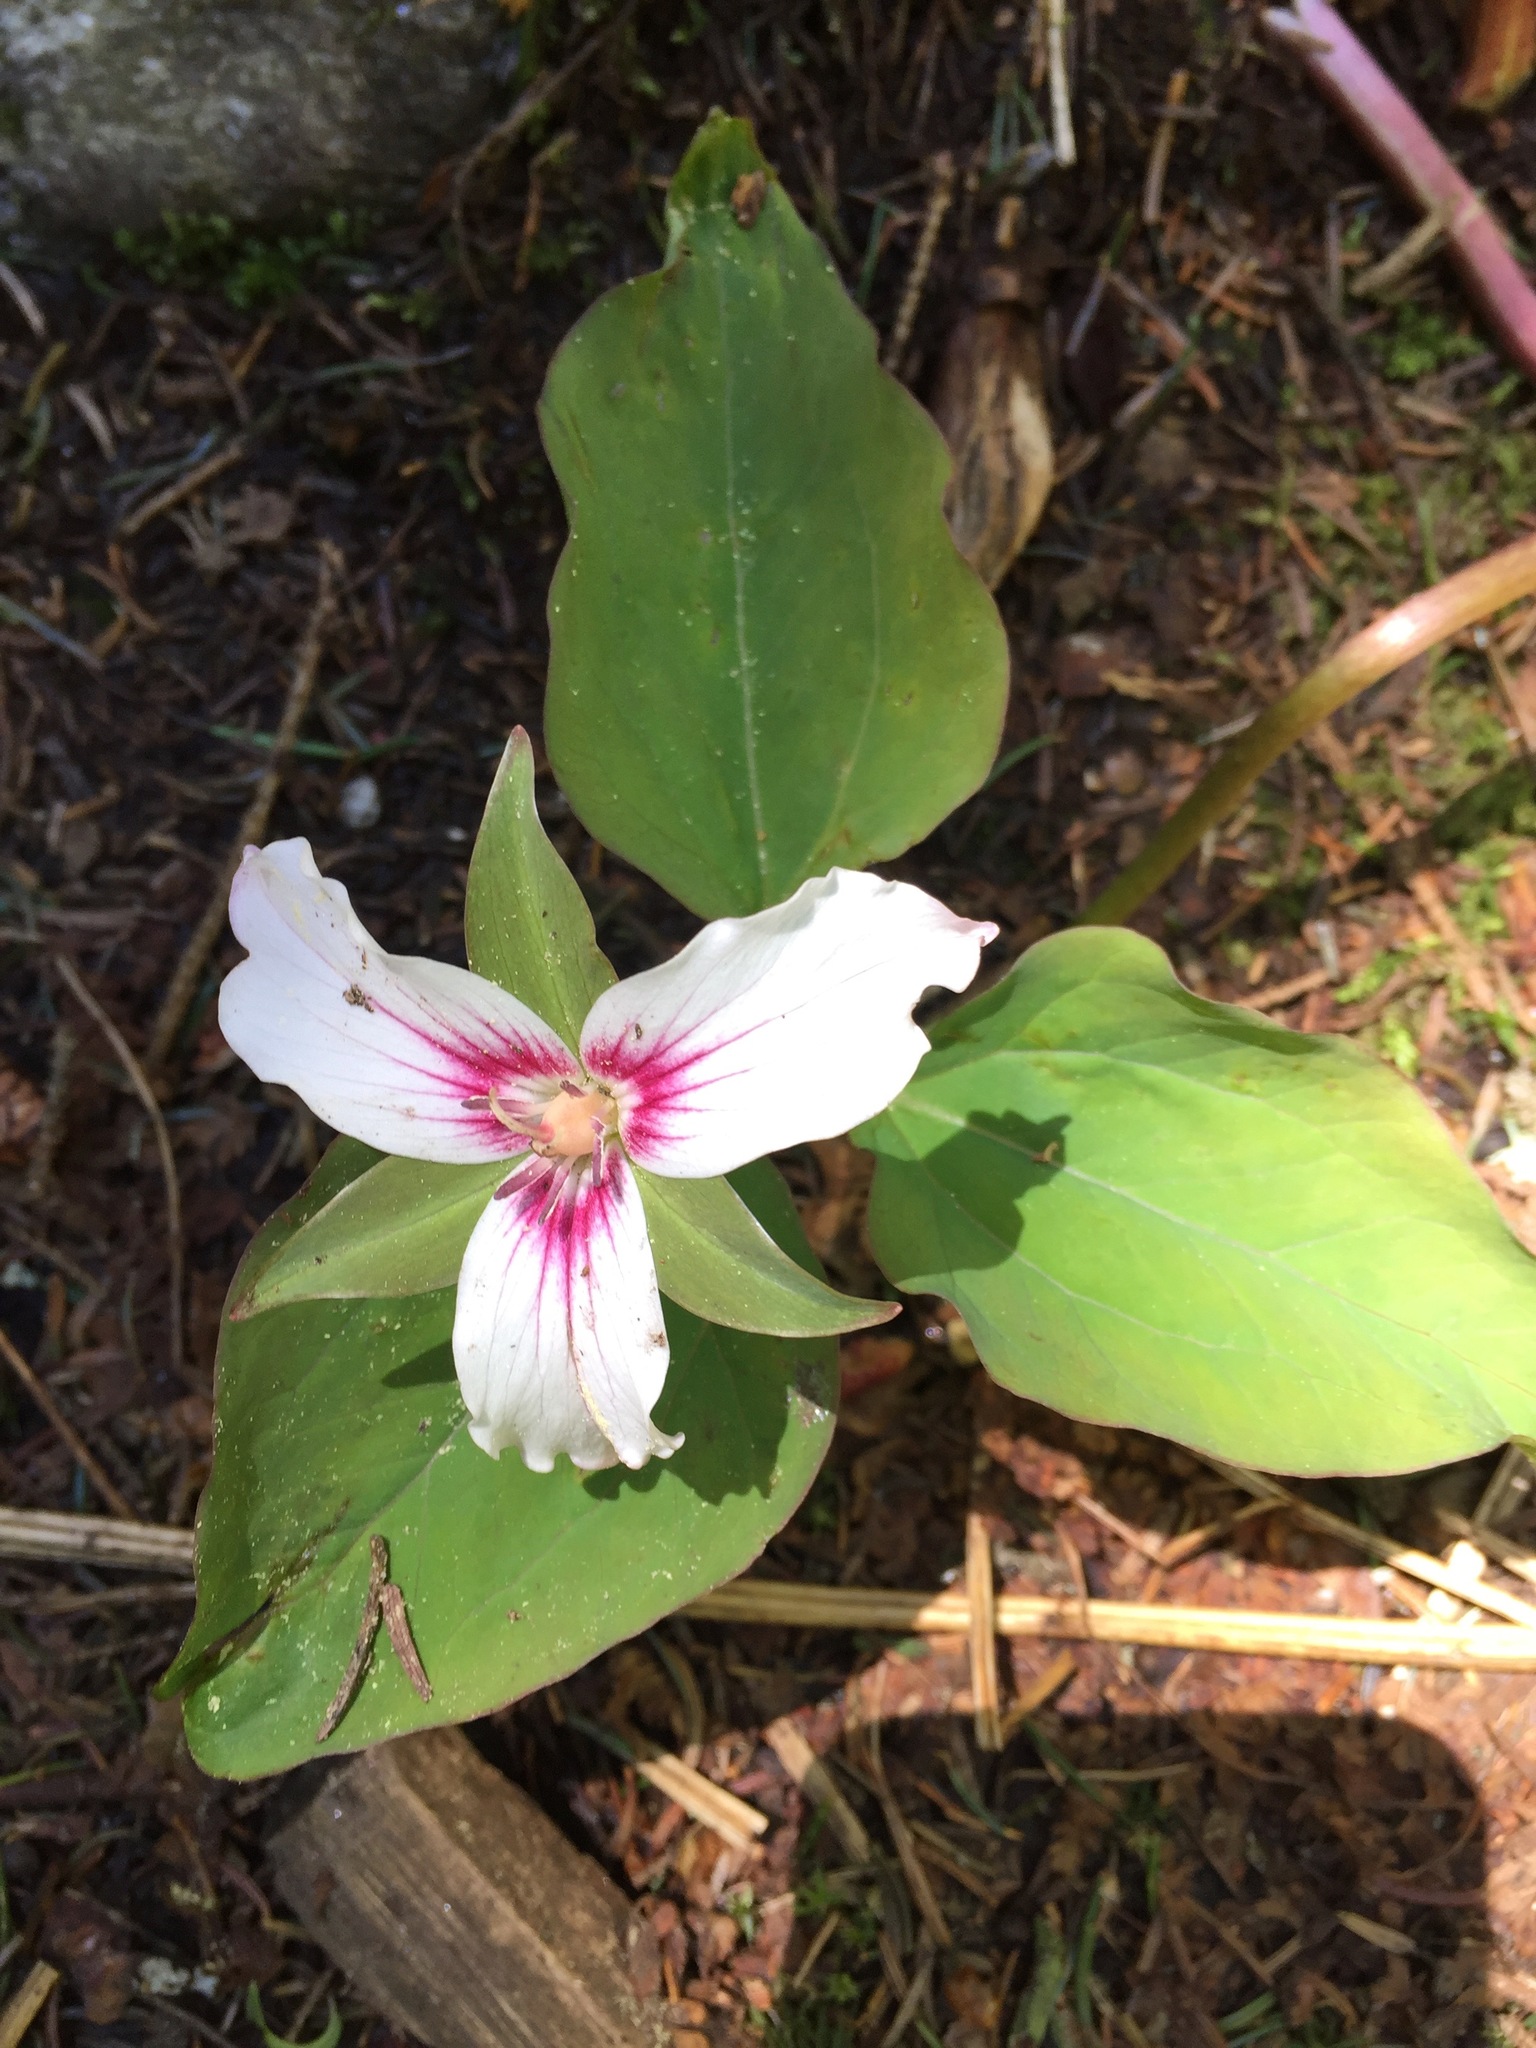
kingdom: Plantae
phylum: Tracheophyta
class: Liliopsida
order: Liliales
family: Melanthiaceae
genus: Trillium
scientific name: Trillium undulatum
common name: Paint trillium
